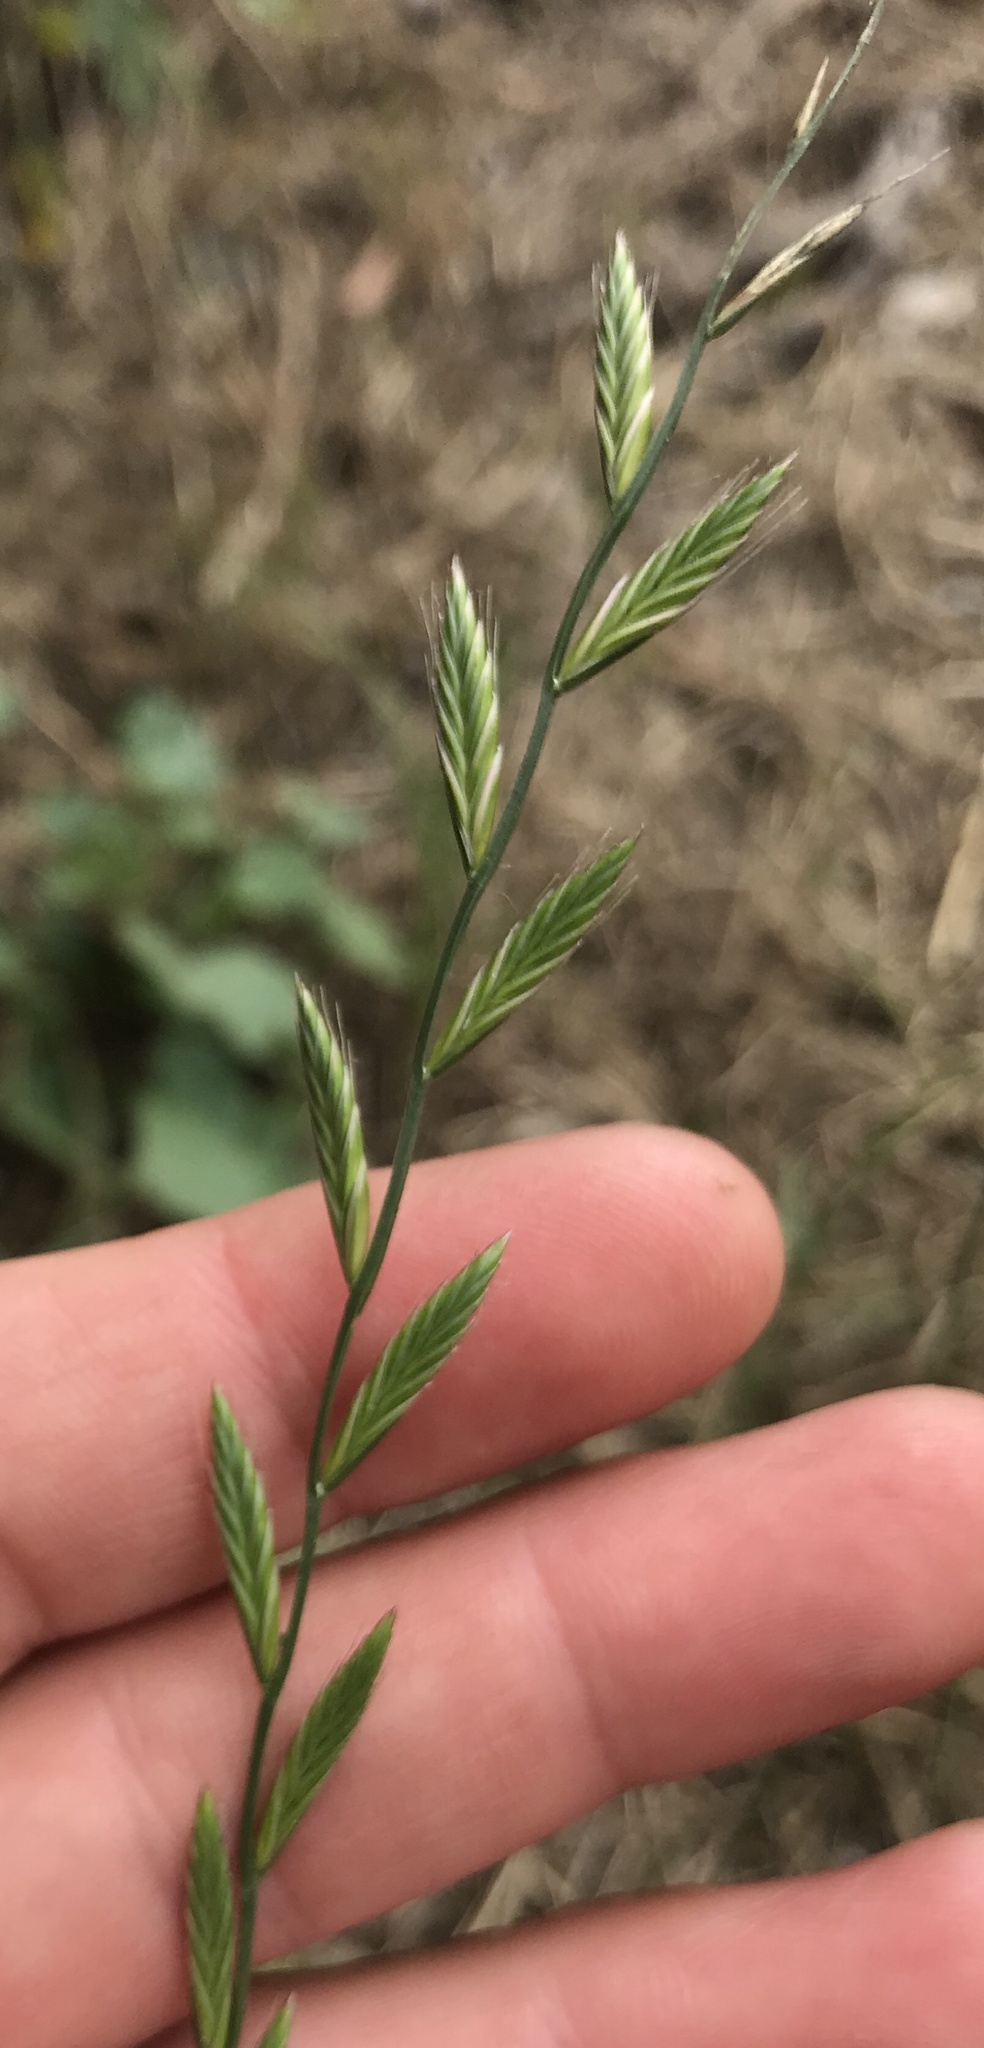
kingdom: Plantae
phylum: Tracheophyta
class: Liliopsida
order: Poales
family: Poaceae
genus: Lolium
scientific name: Lolium multiflorum
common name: Annual ryegrass
